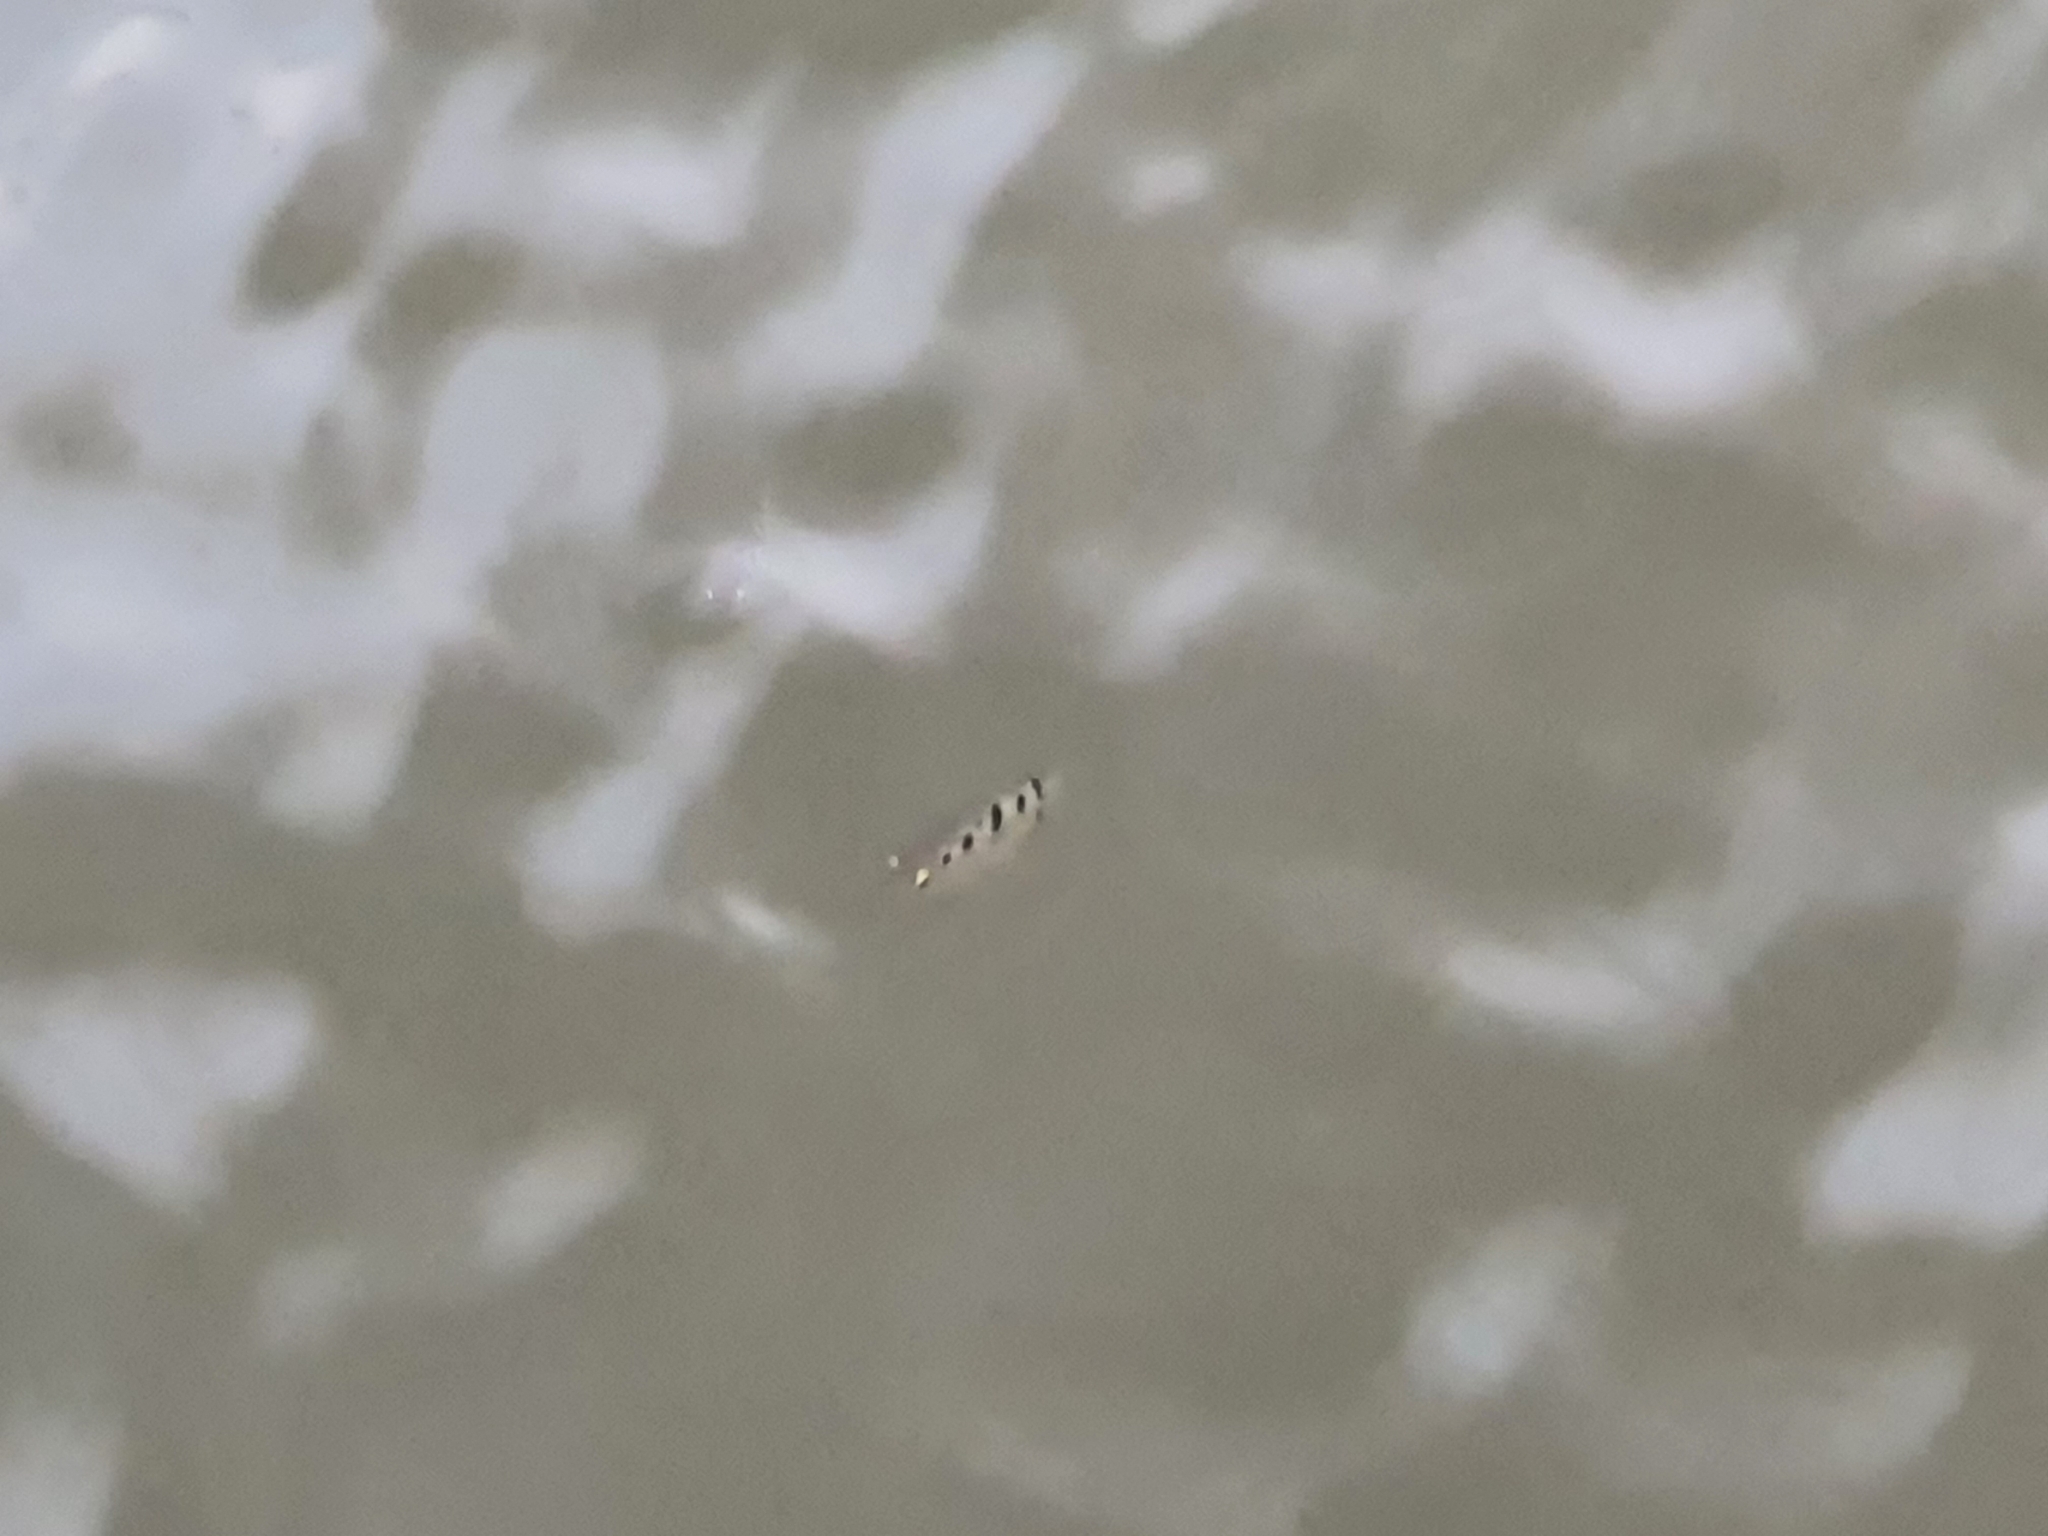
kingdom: Animalia
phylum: Chordata
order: Perciformes
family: Toxotidae
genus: Toxotes
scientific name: Toxotes chatareus
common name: Spotted archerfish
